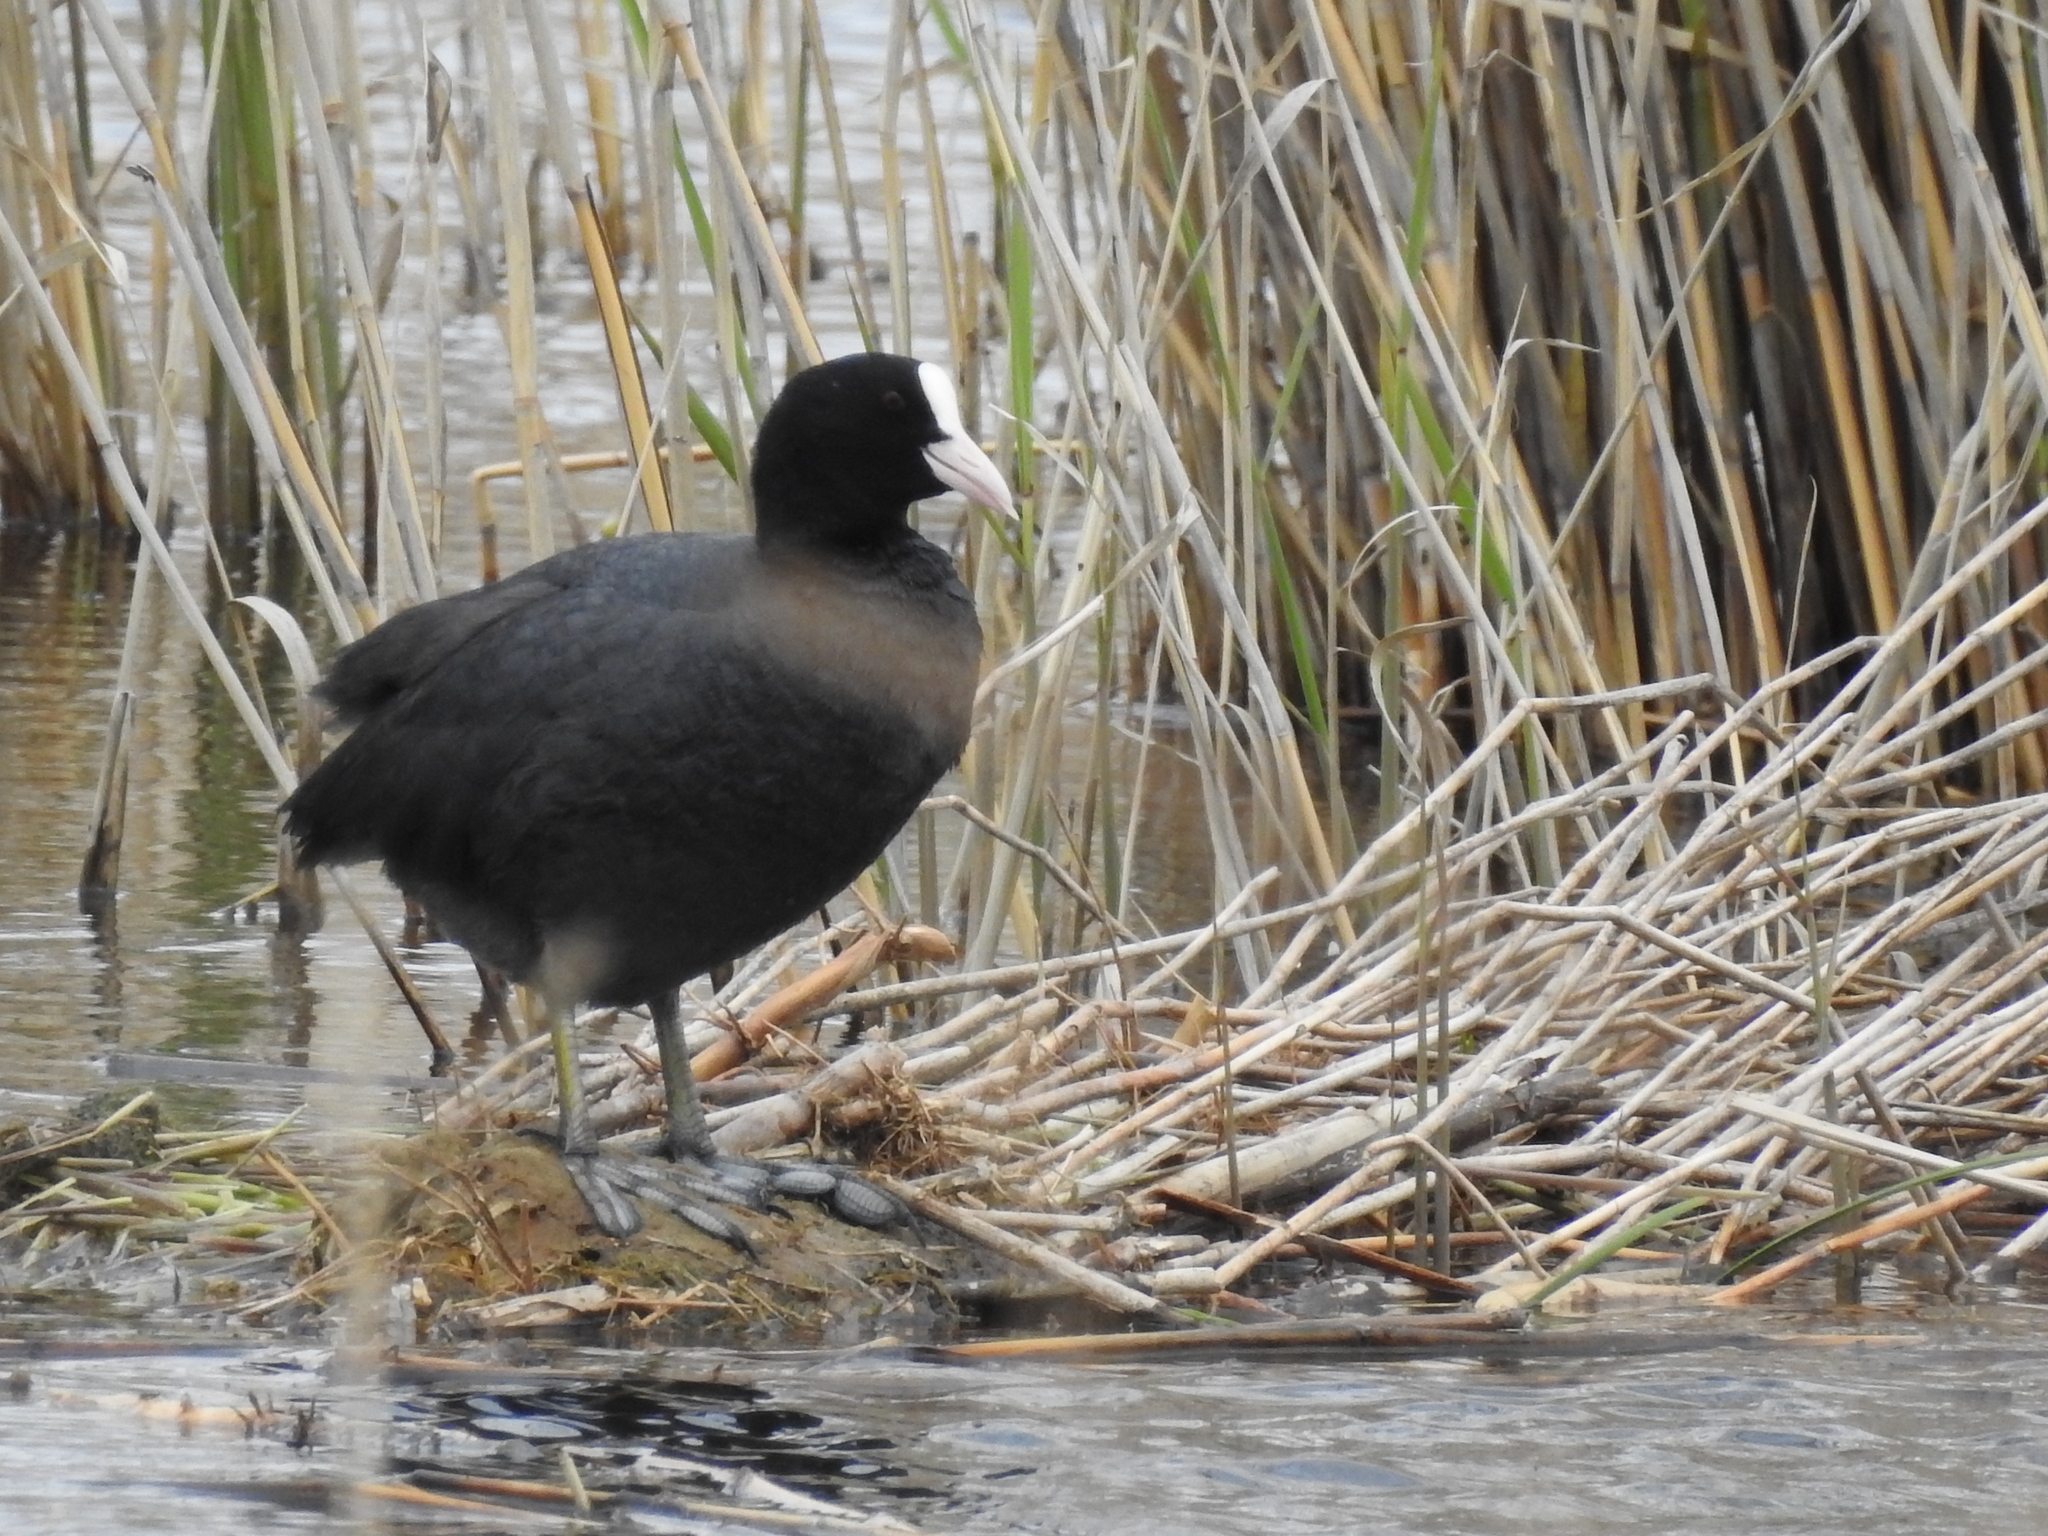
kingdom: Animalia
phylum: Chordata
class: Aves
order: Gruiformes
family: Rallidae
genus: Fulica
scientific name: Fulica atra
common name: Eurasian coot
